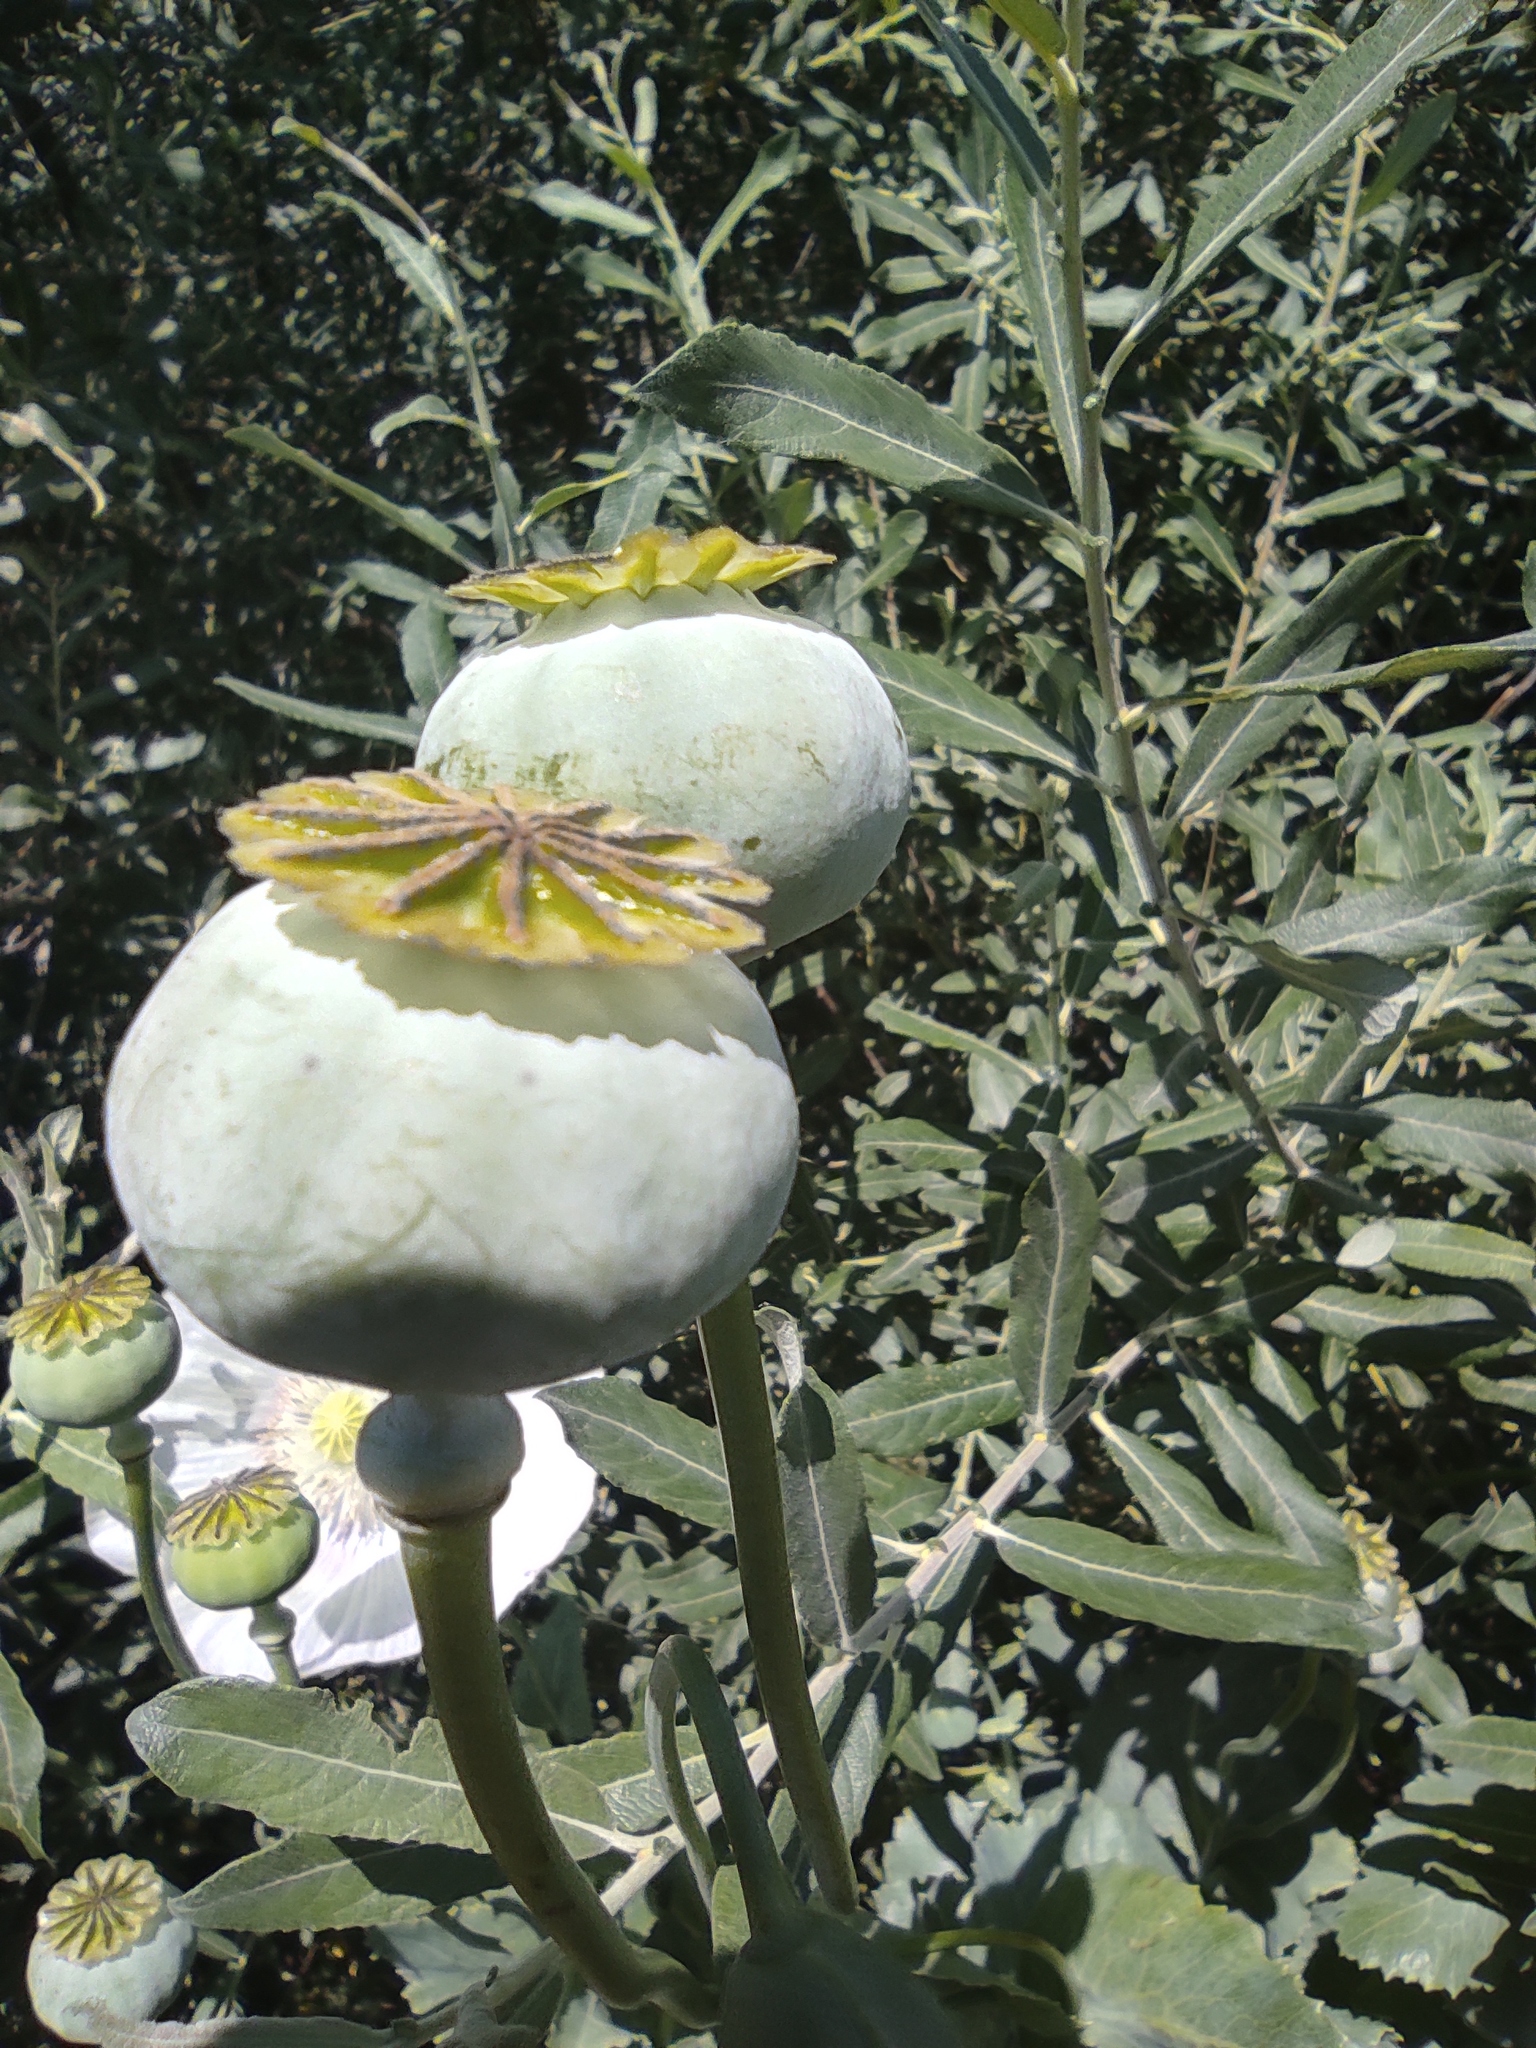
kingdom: Plantae
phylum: Tracheophyta
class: Magnoliopsida
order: Ranunculales
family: Papaveraceae
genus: Papaver
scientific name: Papaver somniferum
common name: Opium poppy
